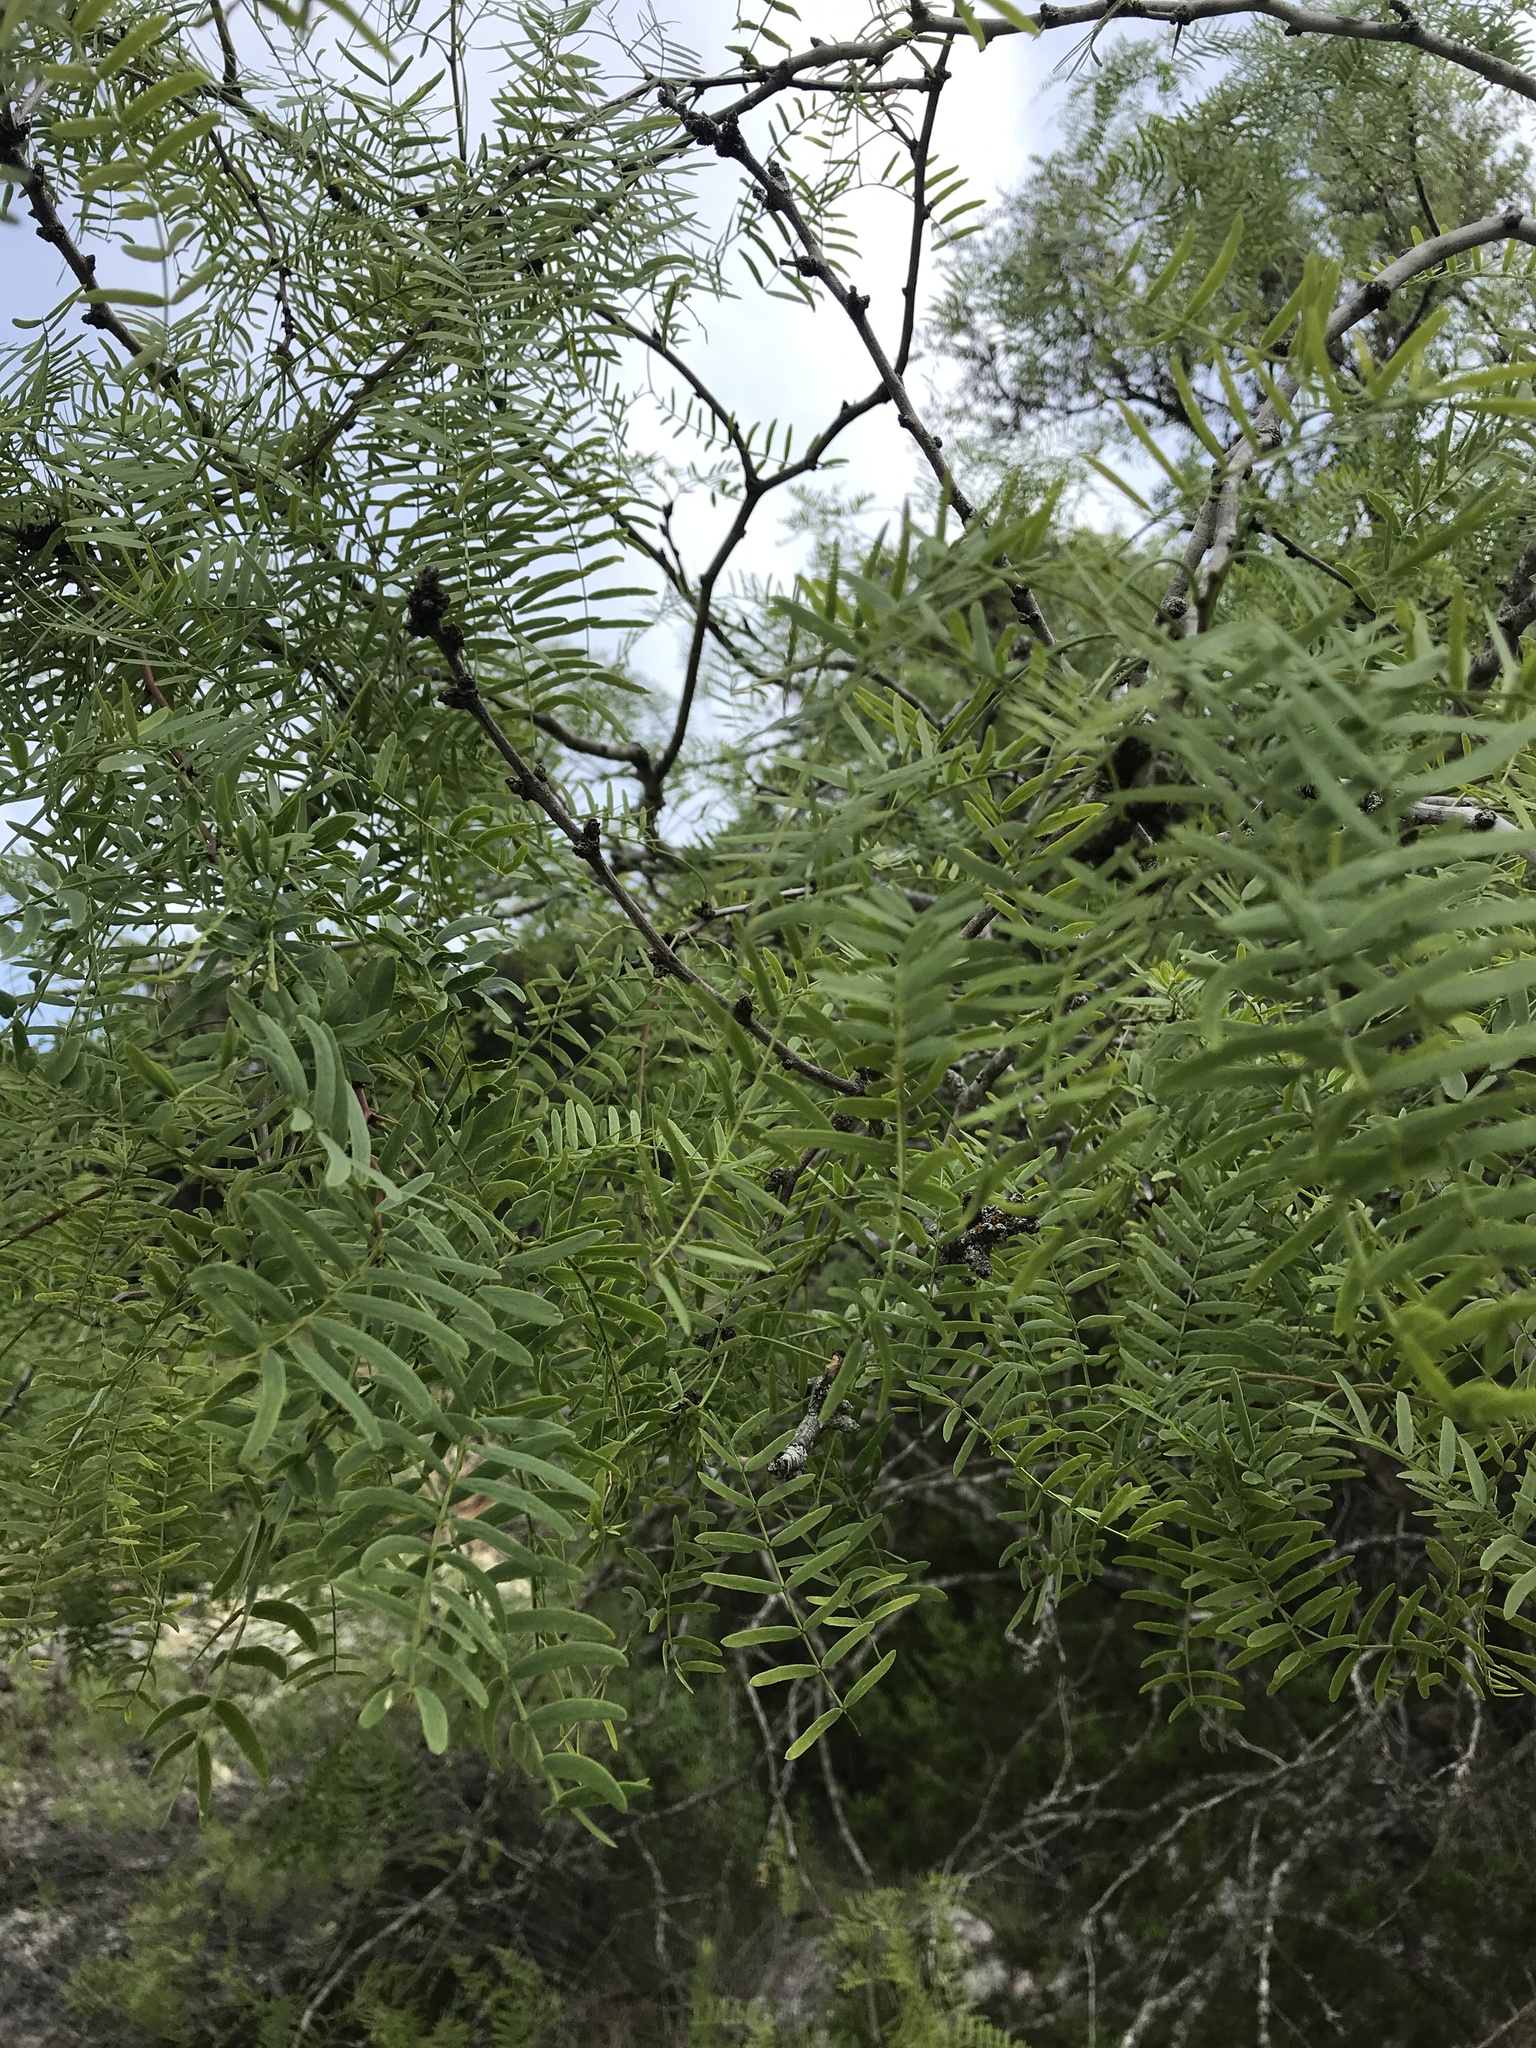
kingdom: Plantae
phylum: Tracheophyta
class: Magnoliopsida
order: Fabales
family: Fabaceae
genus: Prosopis
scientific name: Prosopis glandulosa
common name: Honey mesquite
